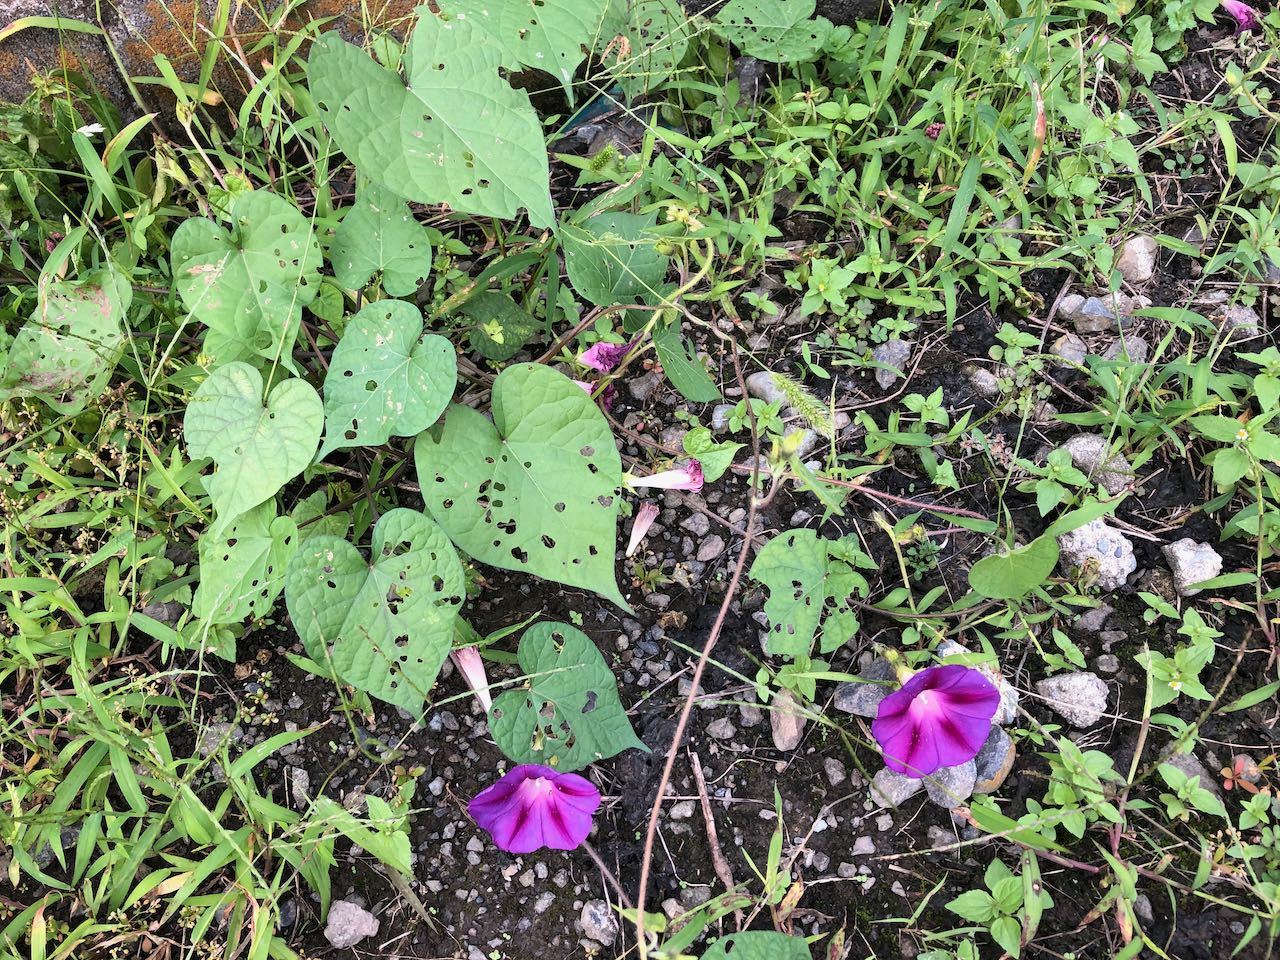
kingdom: Plantae
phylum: Tracheophyta
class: Magnoliopsida
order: Solanales
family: Convolvulaceae
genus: Ipomoea
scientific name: Ipomoea purpurea
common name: Common morning-glory
